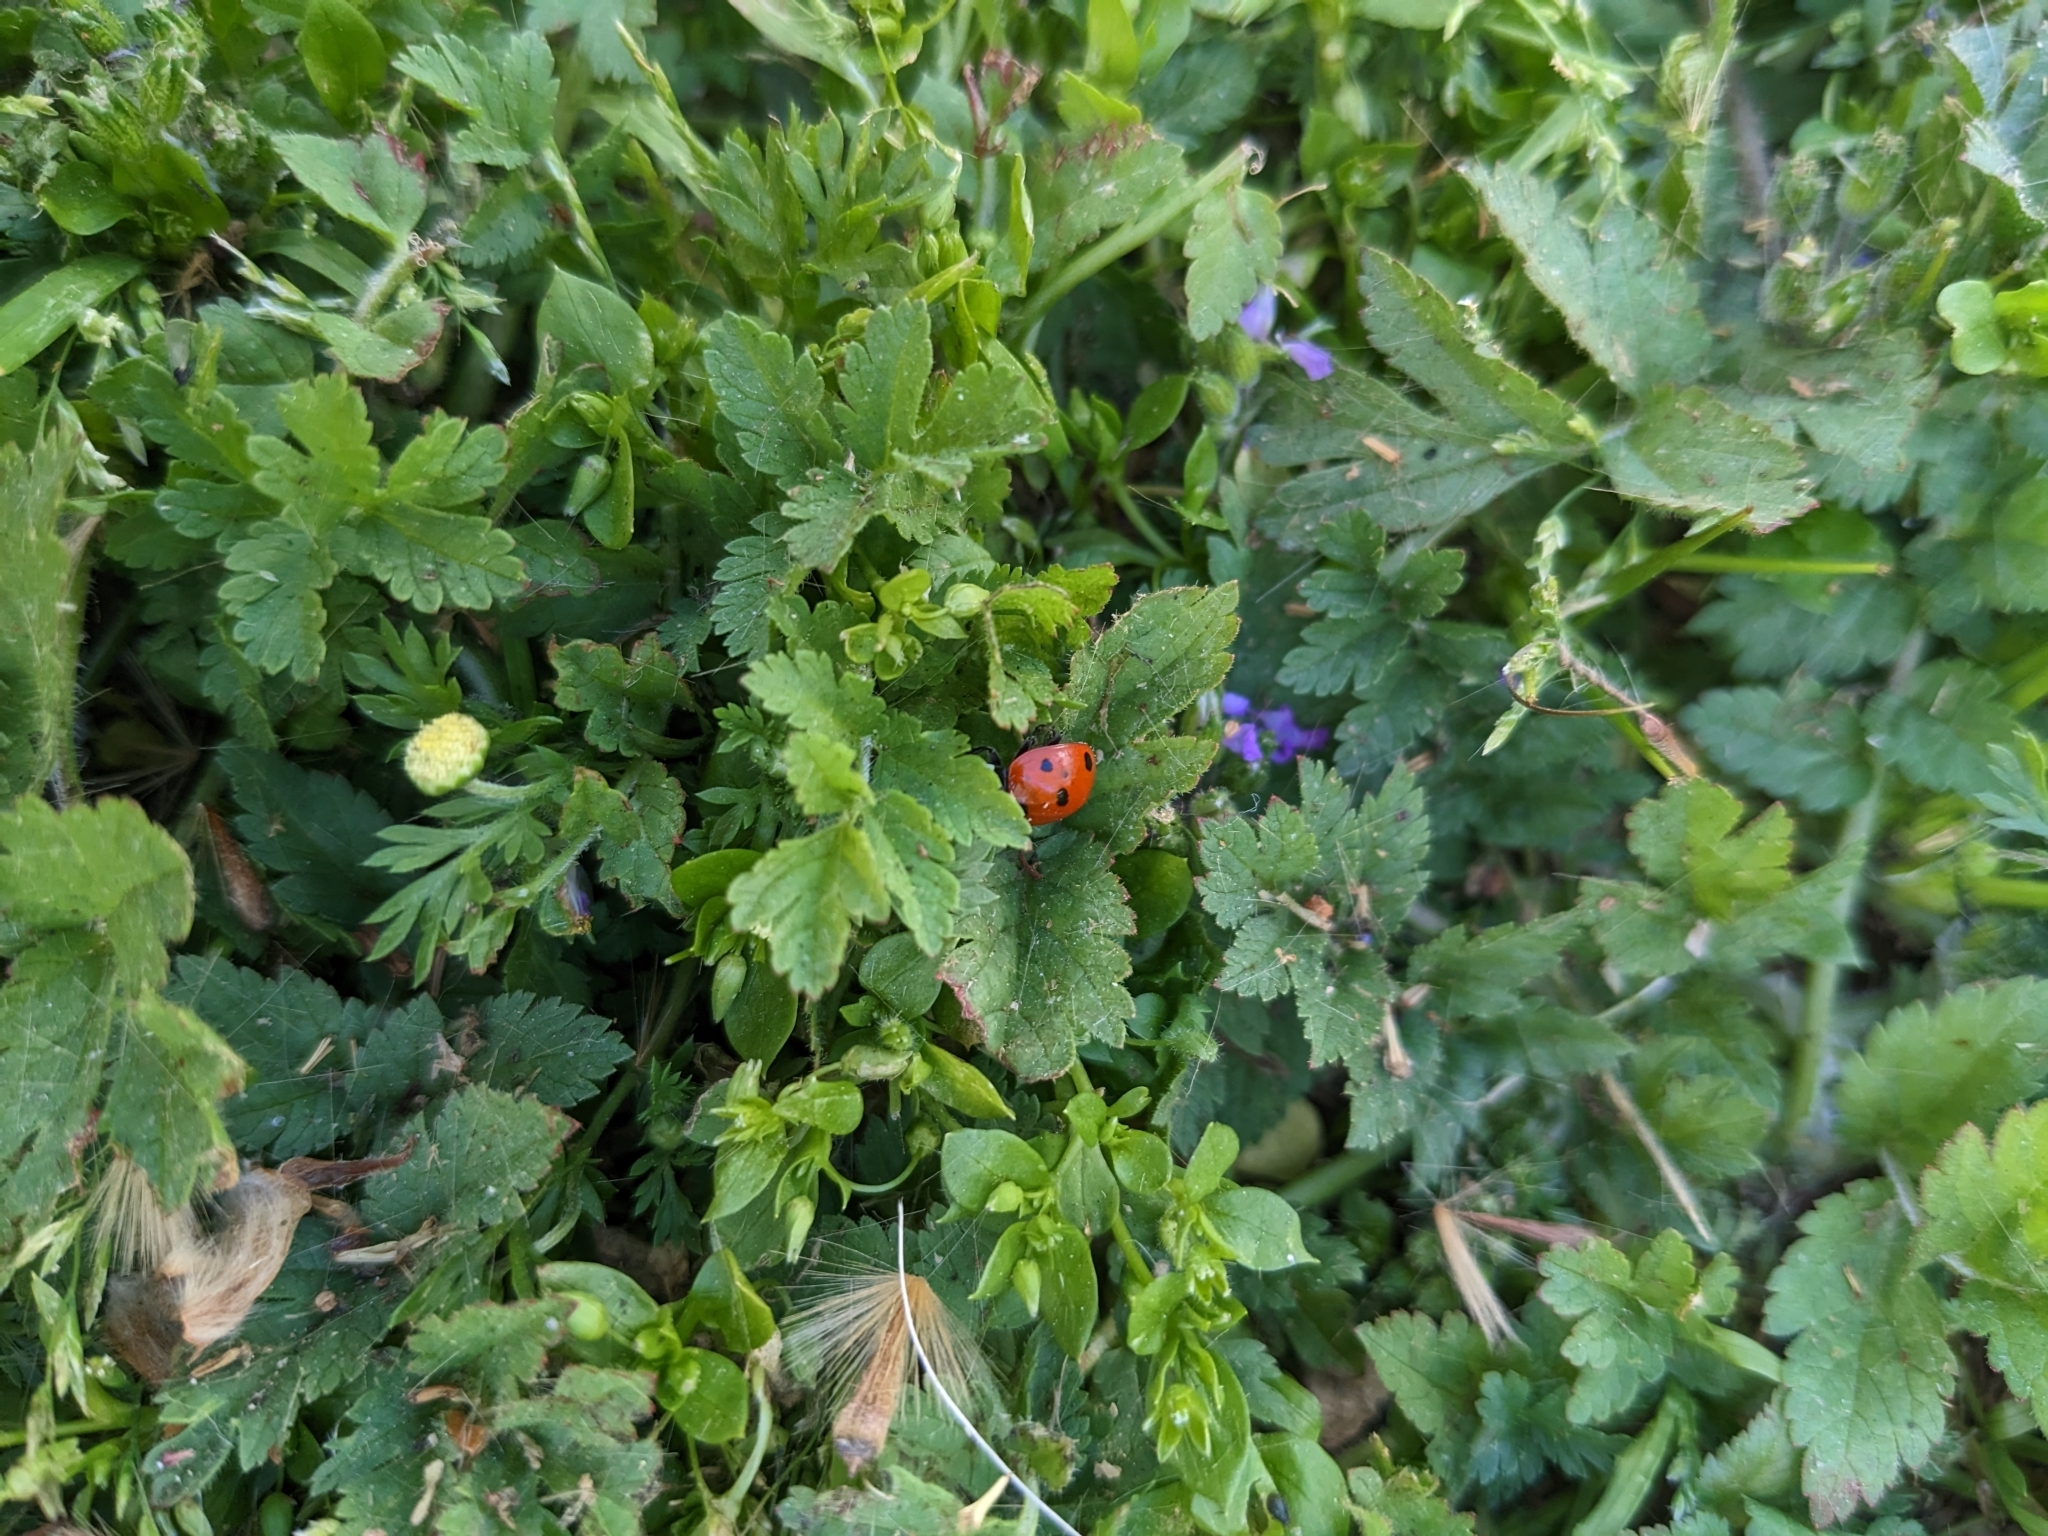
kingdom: Animalia
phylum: Arthropoda
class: Insecta
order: Coleoptera
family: Coccinellidae
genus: Coccinella
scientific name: Coccinella septempunctata
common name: Sevenspotted lady beetle
